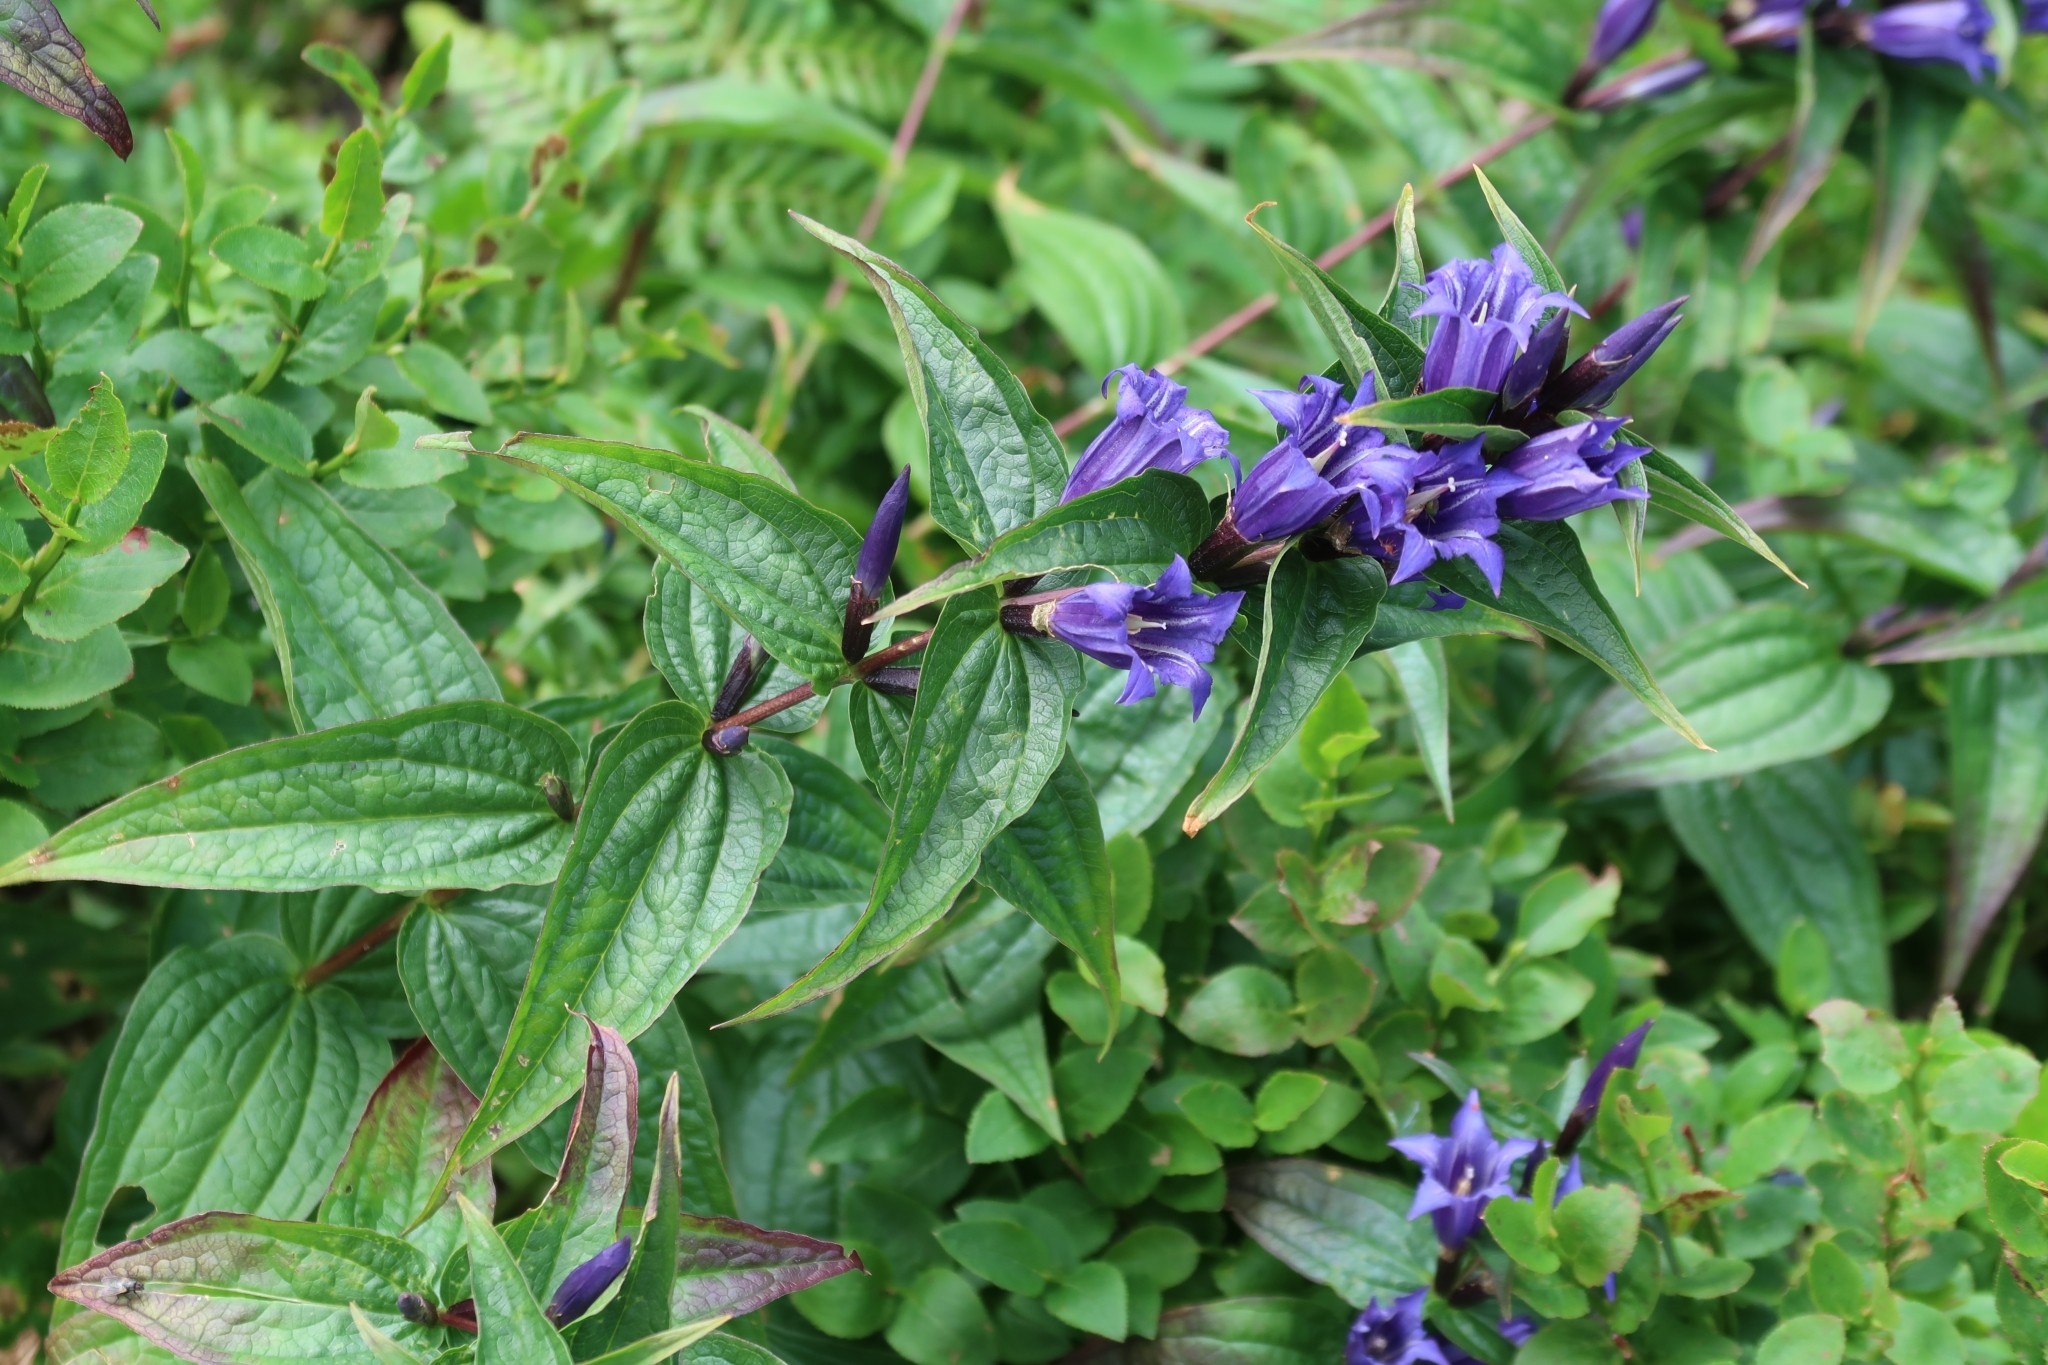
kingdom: Plantae
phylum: Tracheophyta
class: Magnoliopsida
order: Gentianales
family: Gentianaceae
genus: Gentiana
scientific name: Gentiana asclepiadea
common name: Willow gentian
